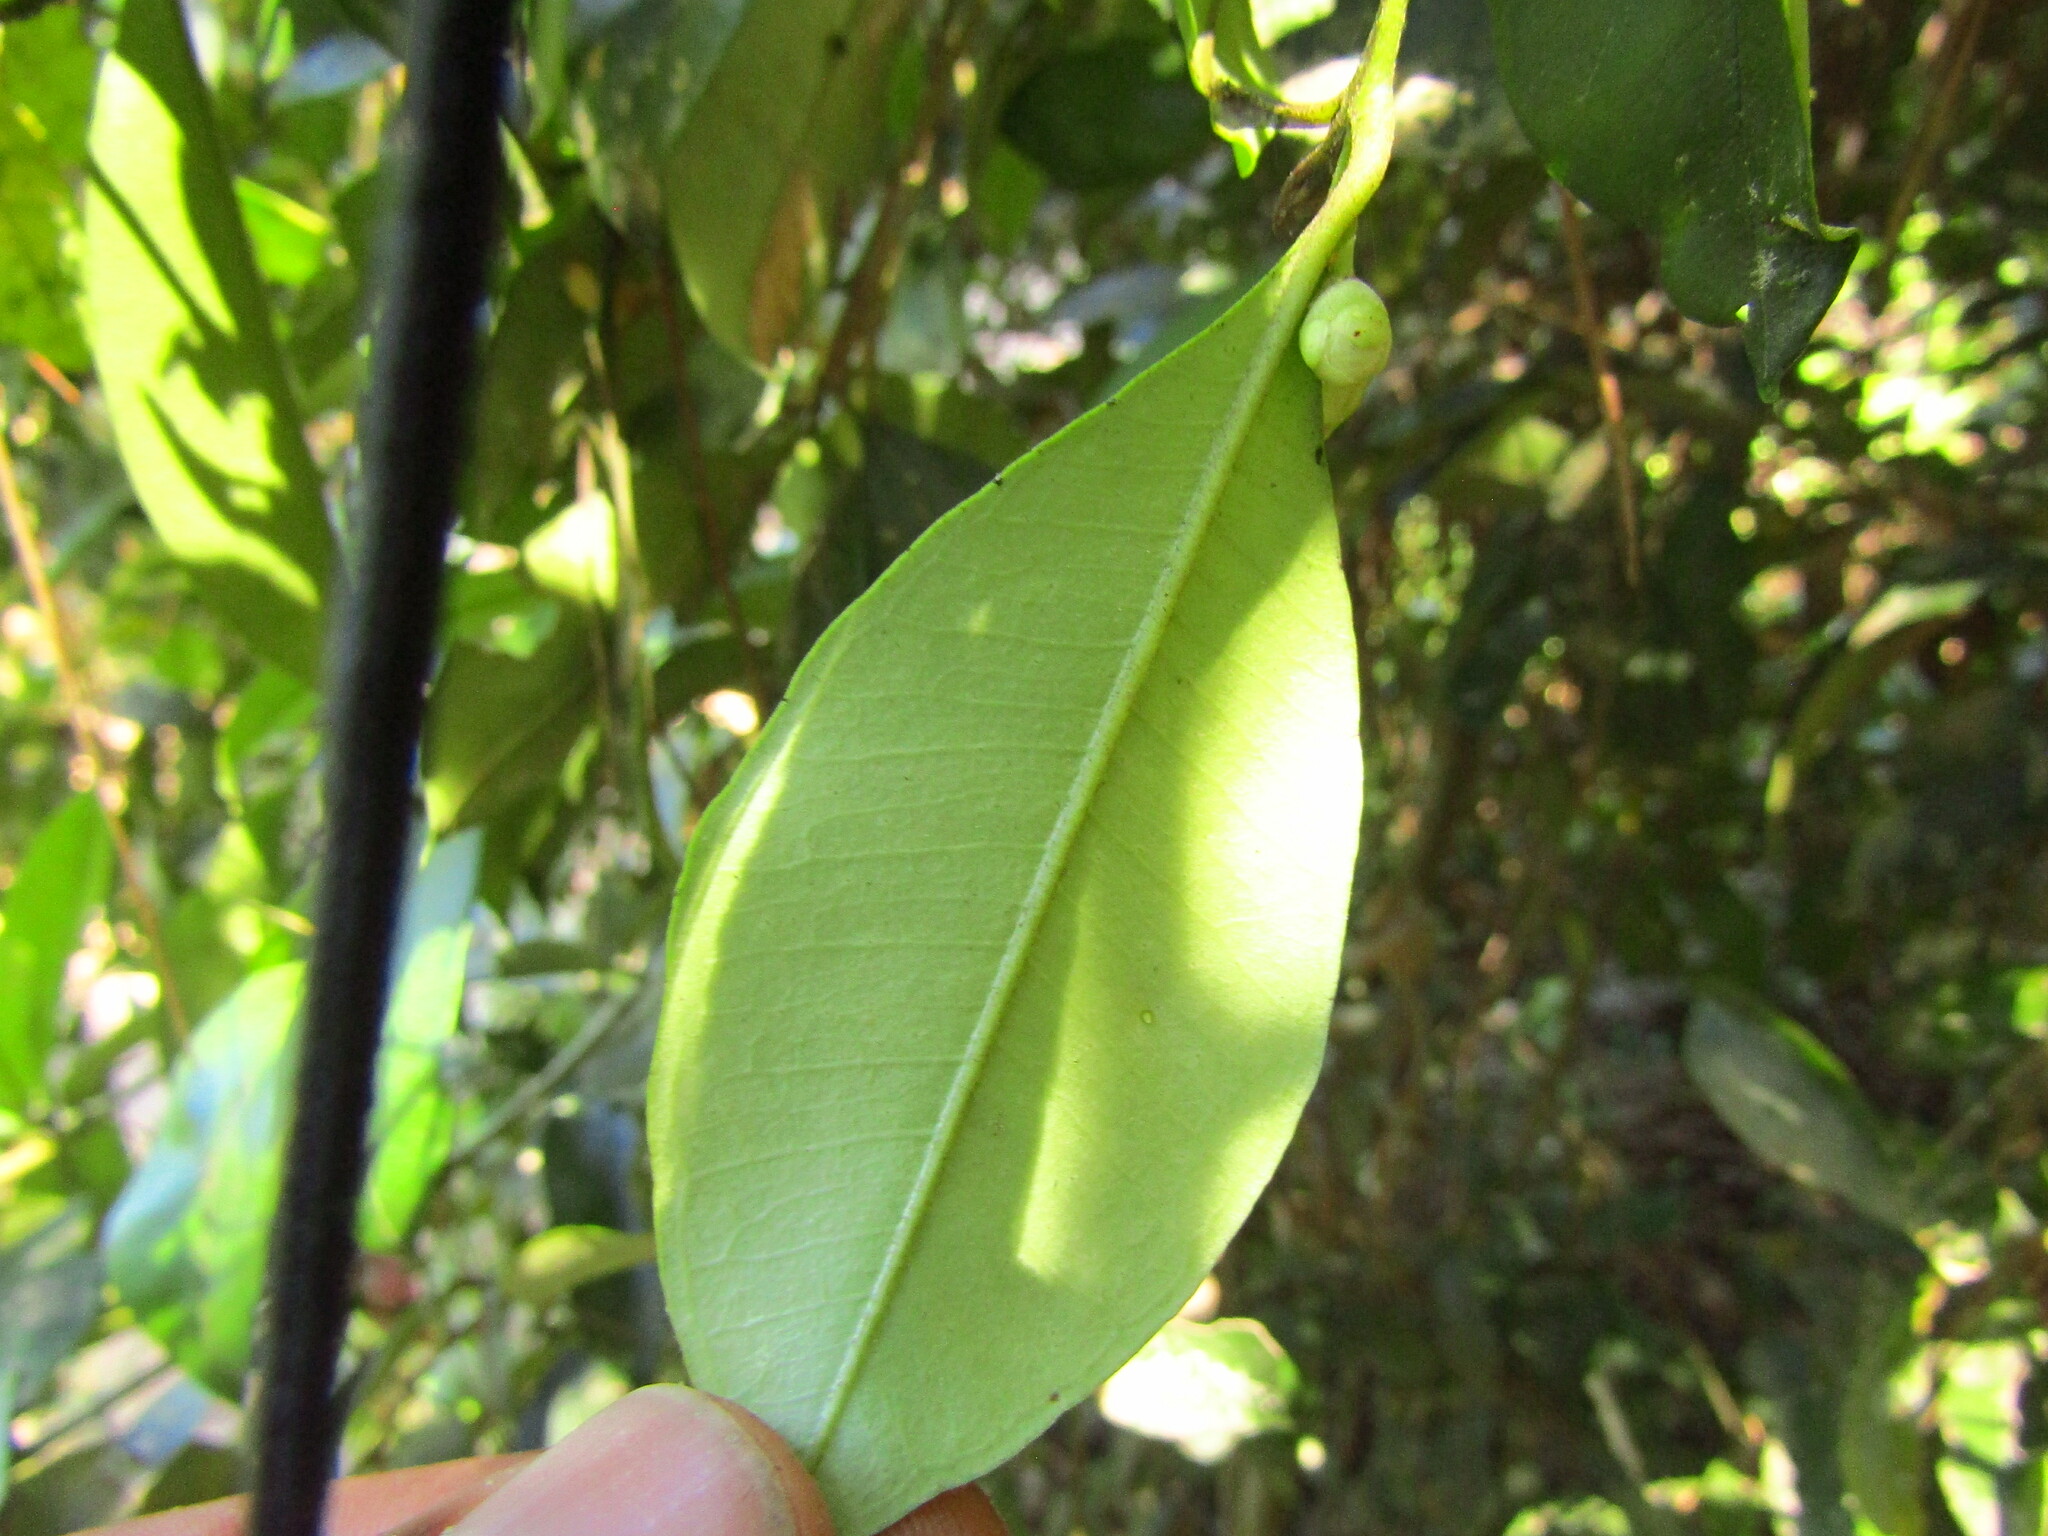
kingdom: Plantae
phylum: Tracheophyta
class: Magnoliopsida
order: Myrtales
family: Myrtaceae
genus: Myrceugenia
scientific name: Myrceugenia planipes
